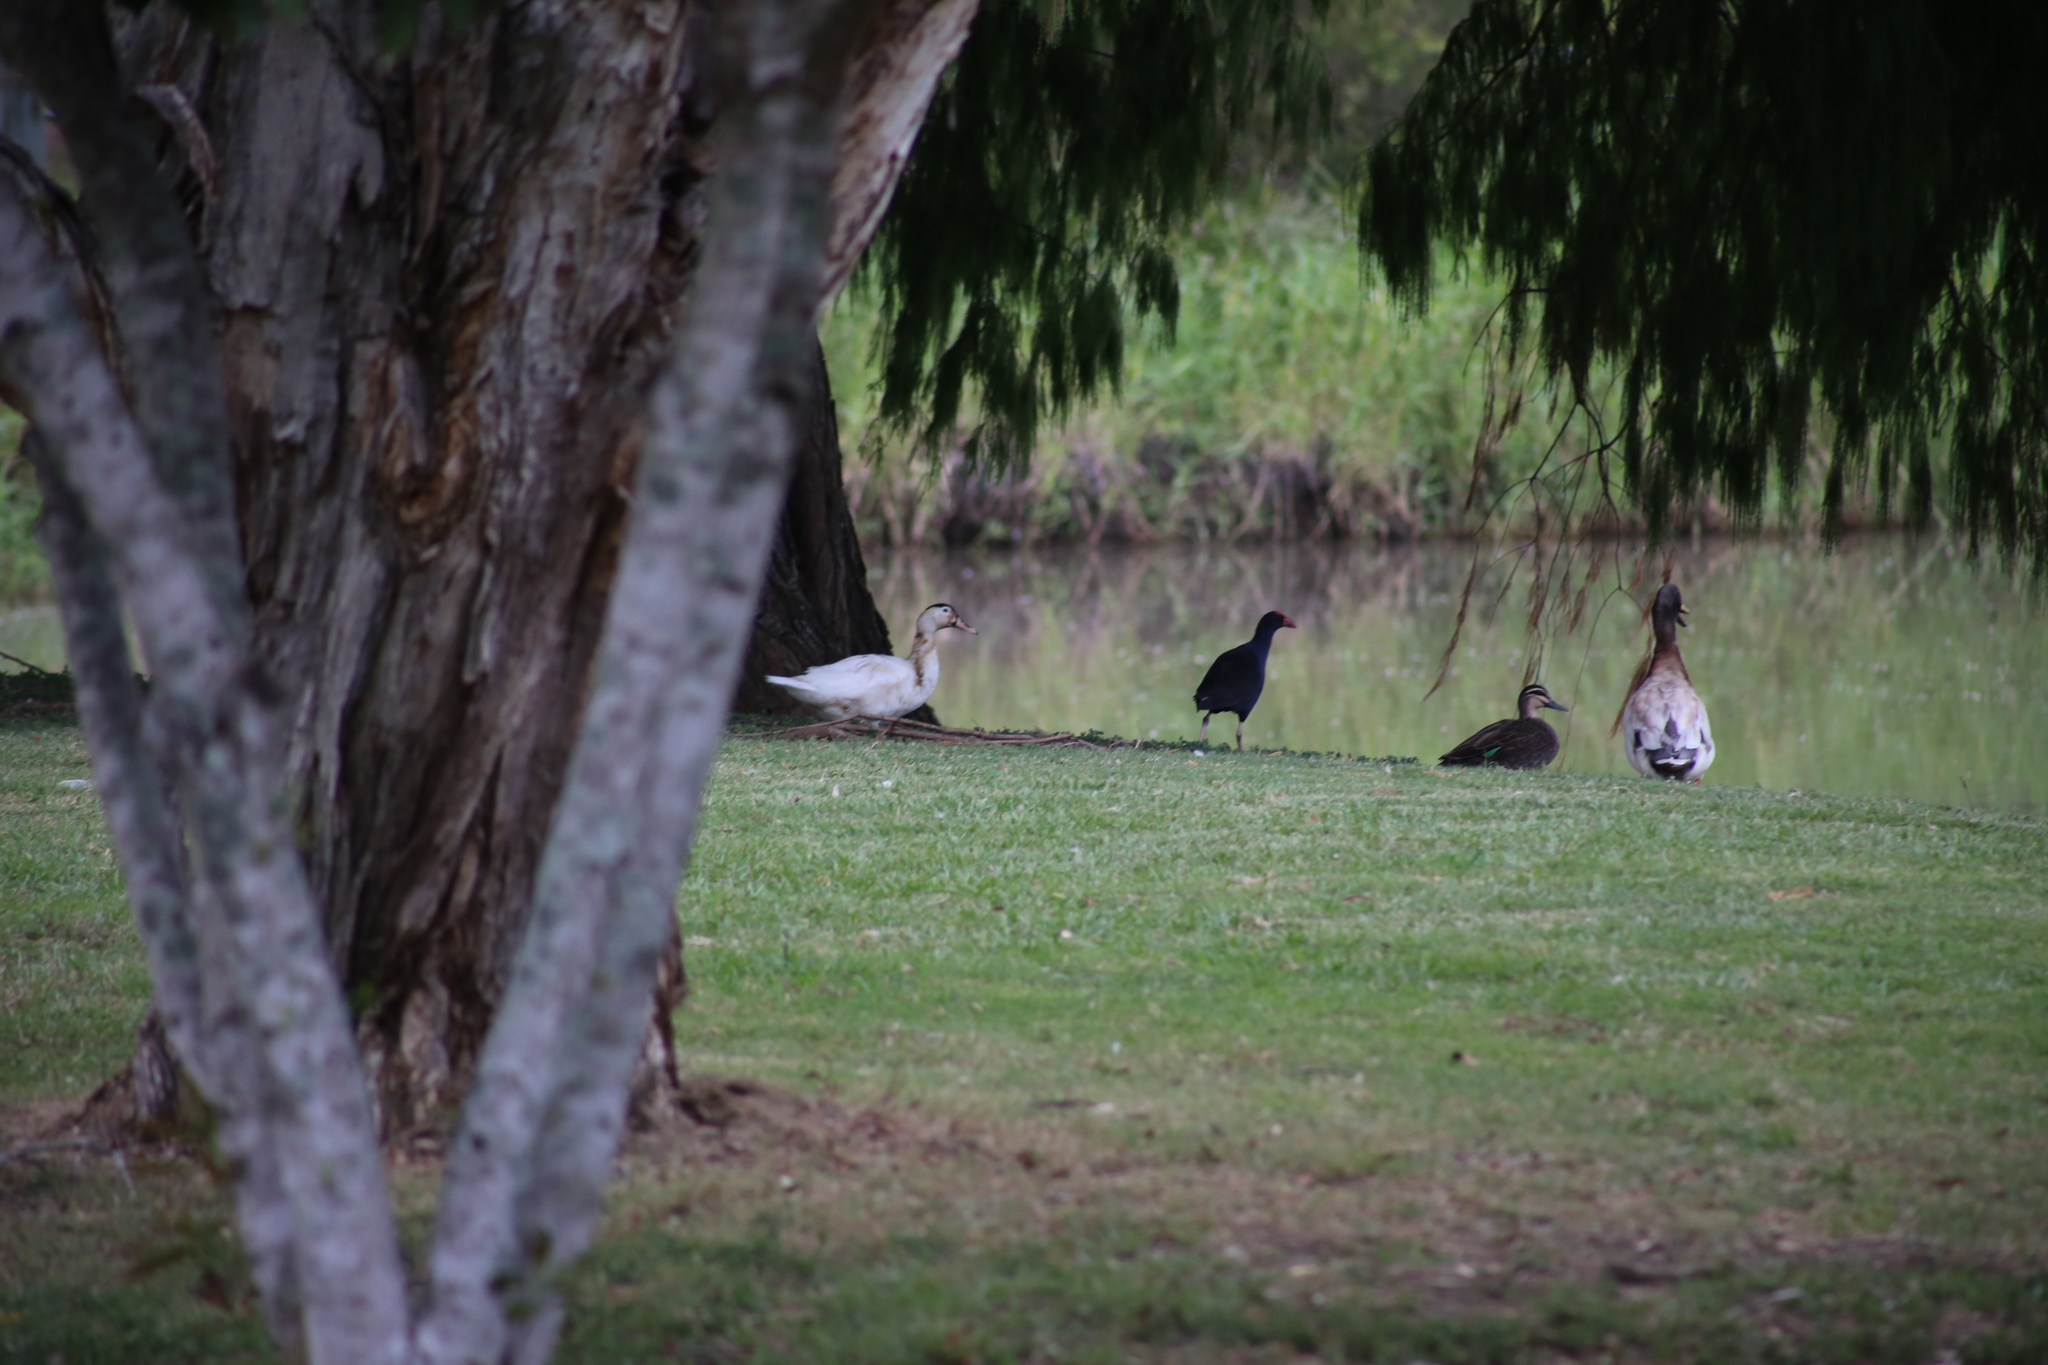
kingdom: Animalia
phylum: Chordata
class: Aves
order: Anseriformes
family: Anatidae
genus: Anas
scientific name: Anas superciliosa
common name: Pacific black duck
